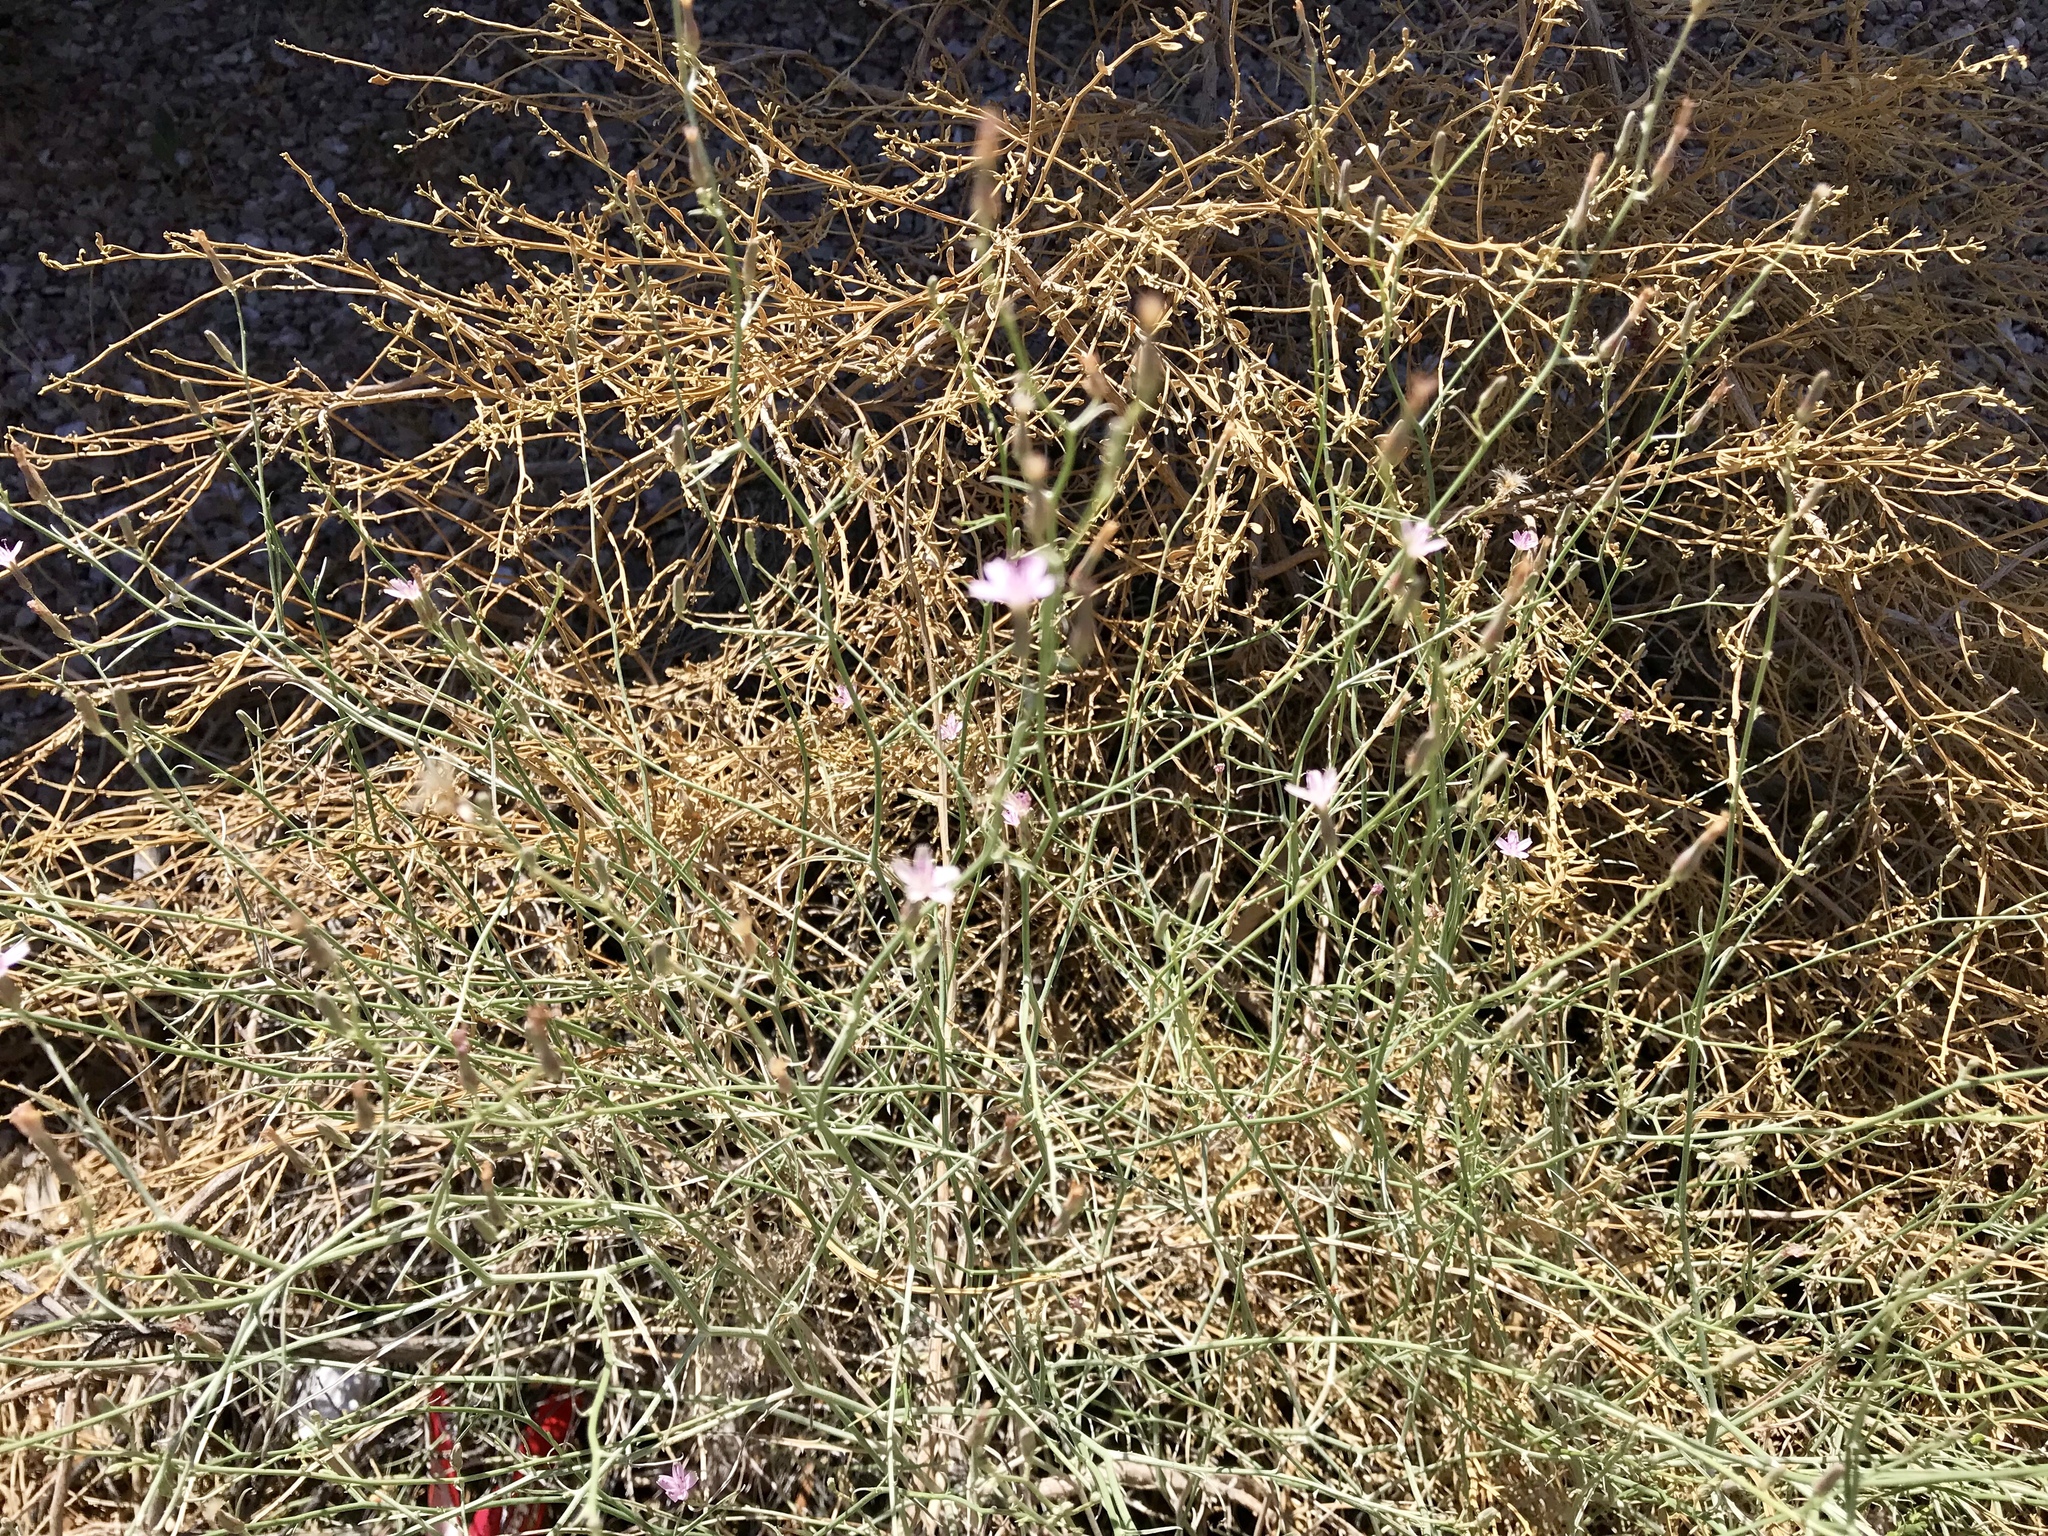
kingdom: Plantae
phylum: Tracheophyta
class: Magnoliopsida
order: Asterales
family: Asteraceae
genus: Stephanomeria
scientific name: Stephanomeria pauciflora
